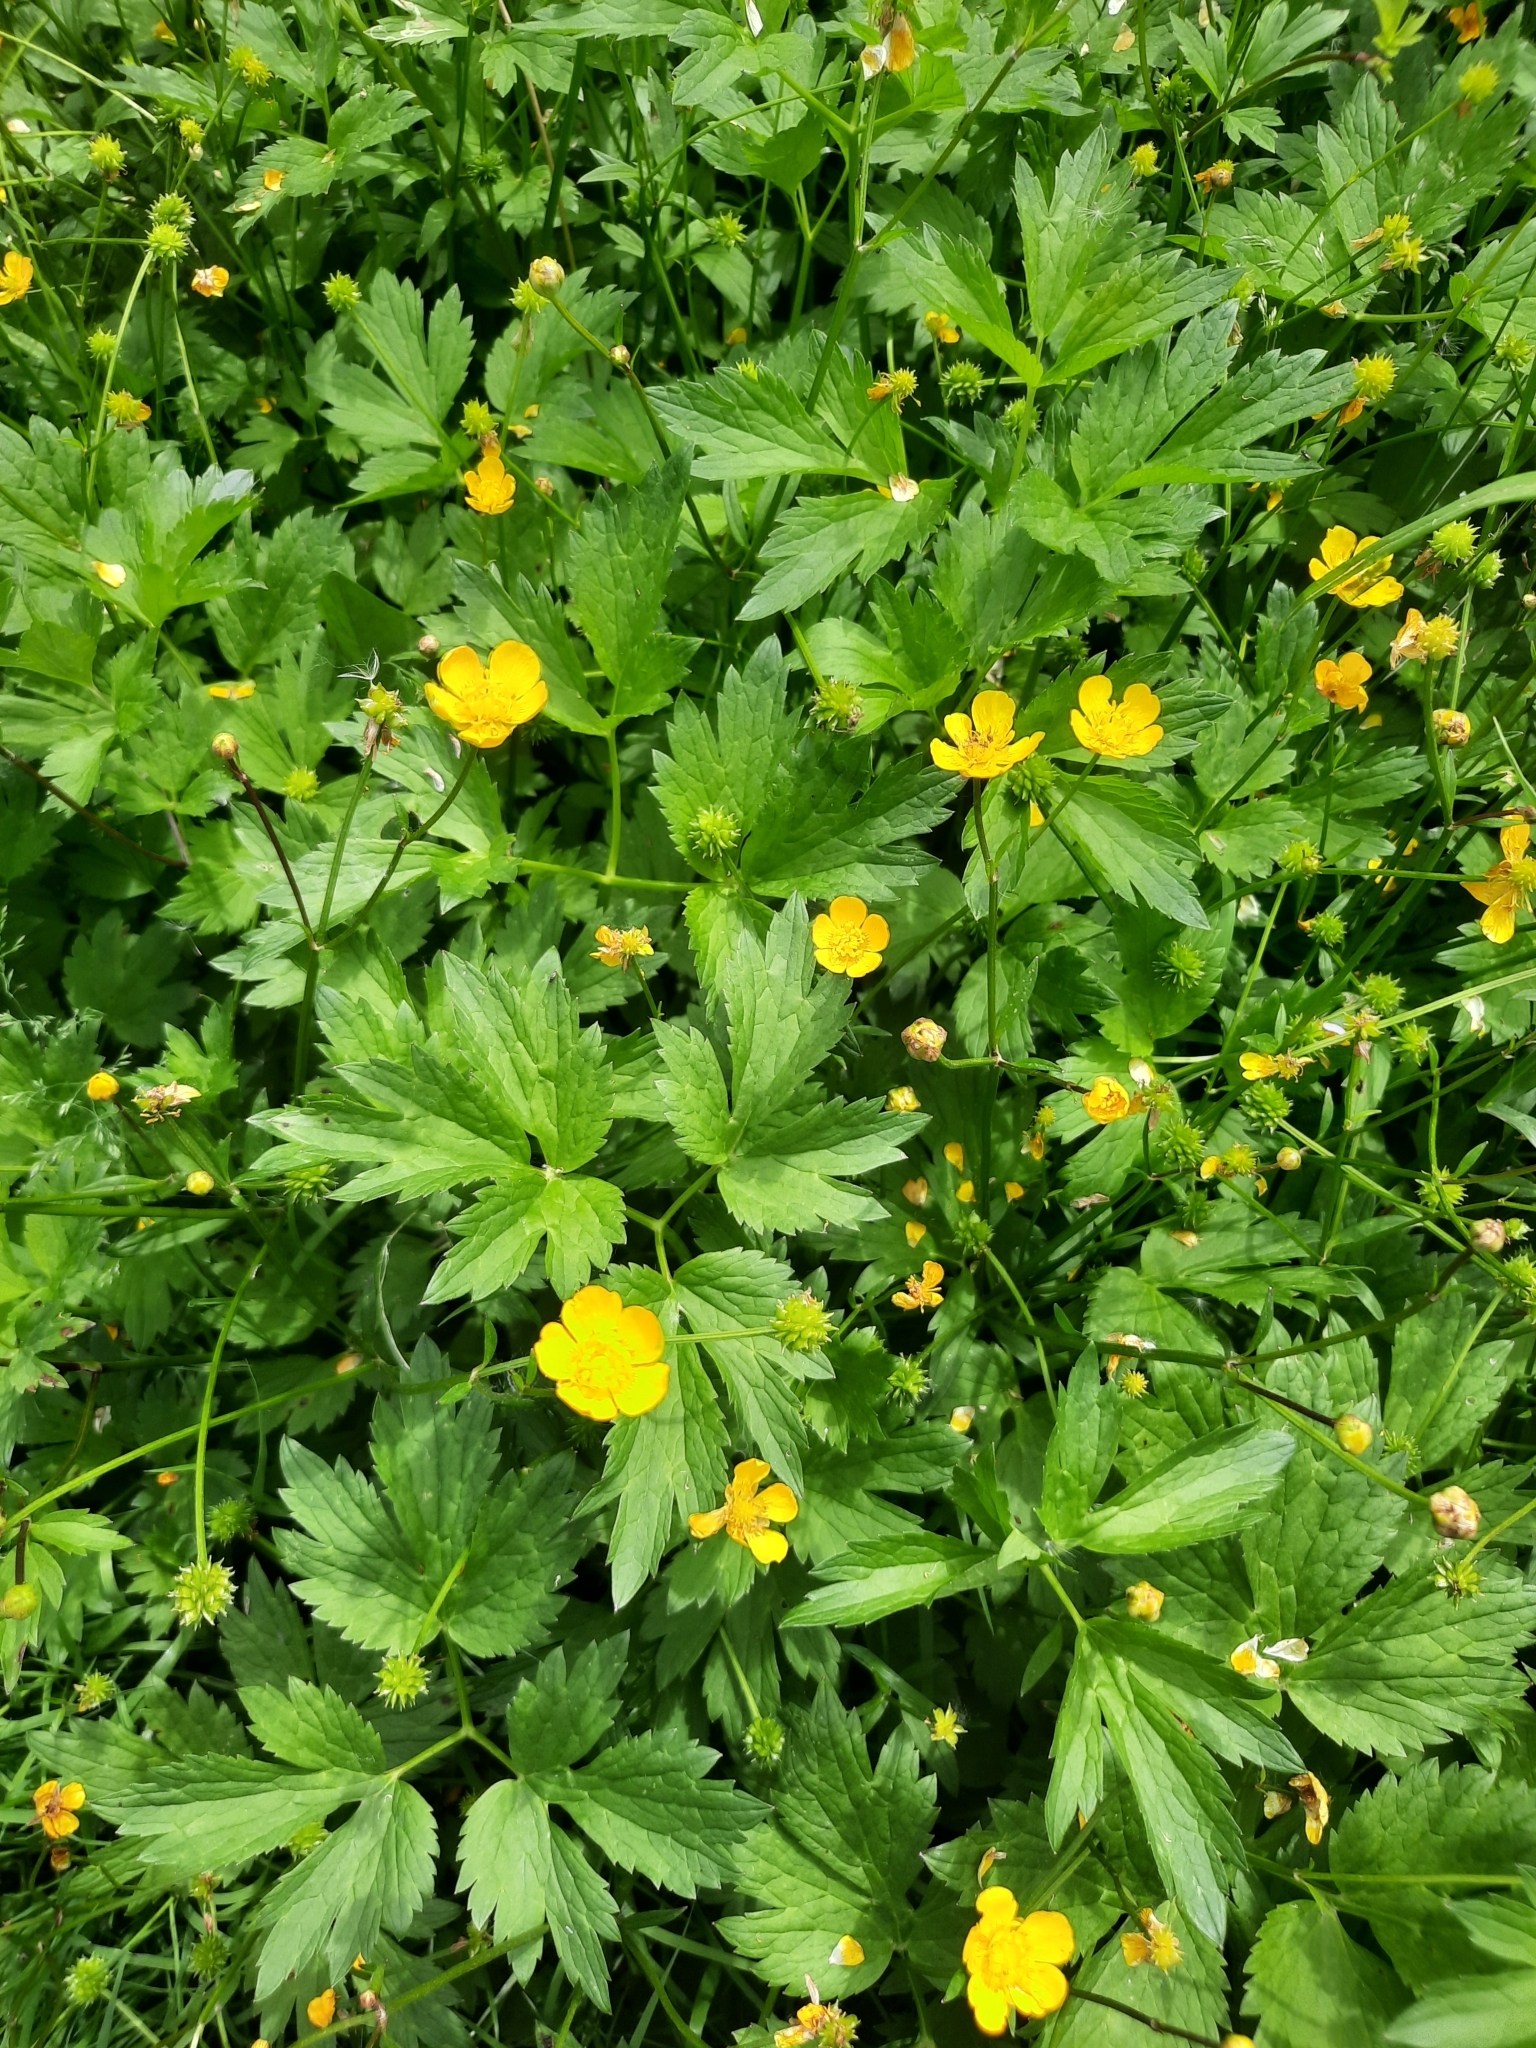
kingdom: Plantae
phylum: Tracheophyta
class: Magnoliopsida
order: Ranunculales
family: Ranunculaceae
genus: Ranunculus
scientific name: Ranunculus repens
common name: Creeping buttercup
